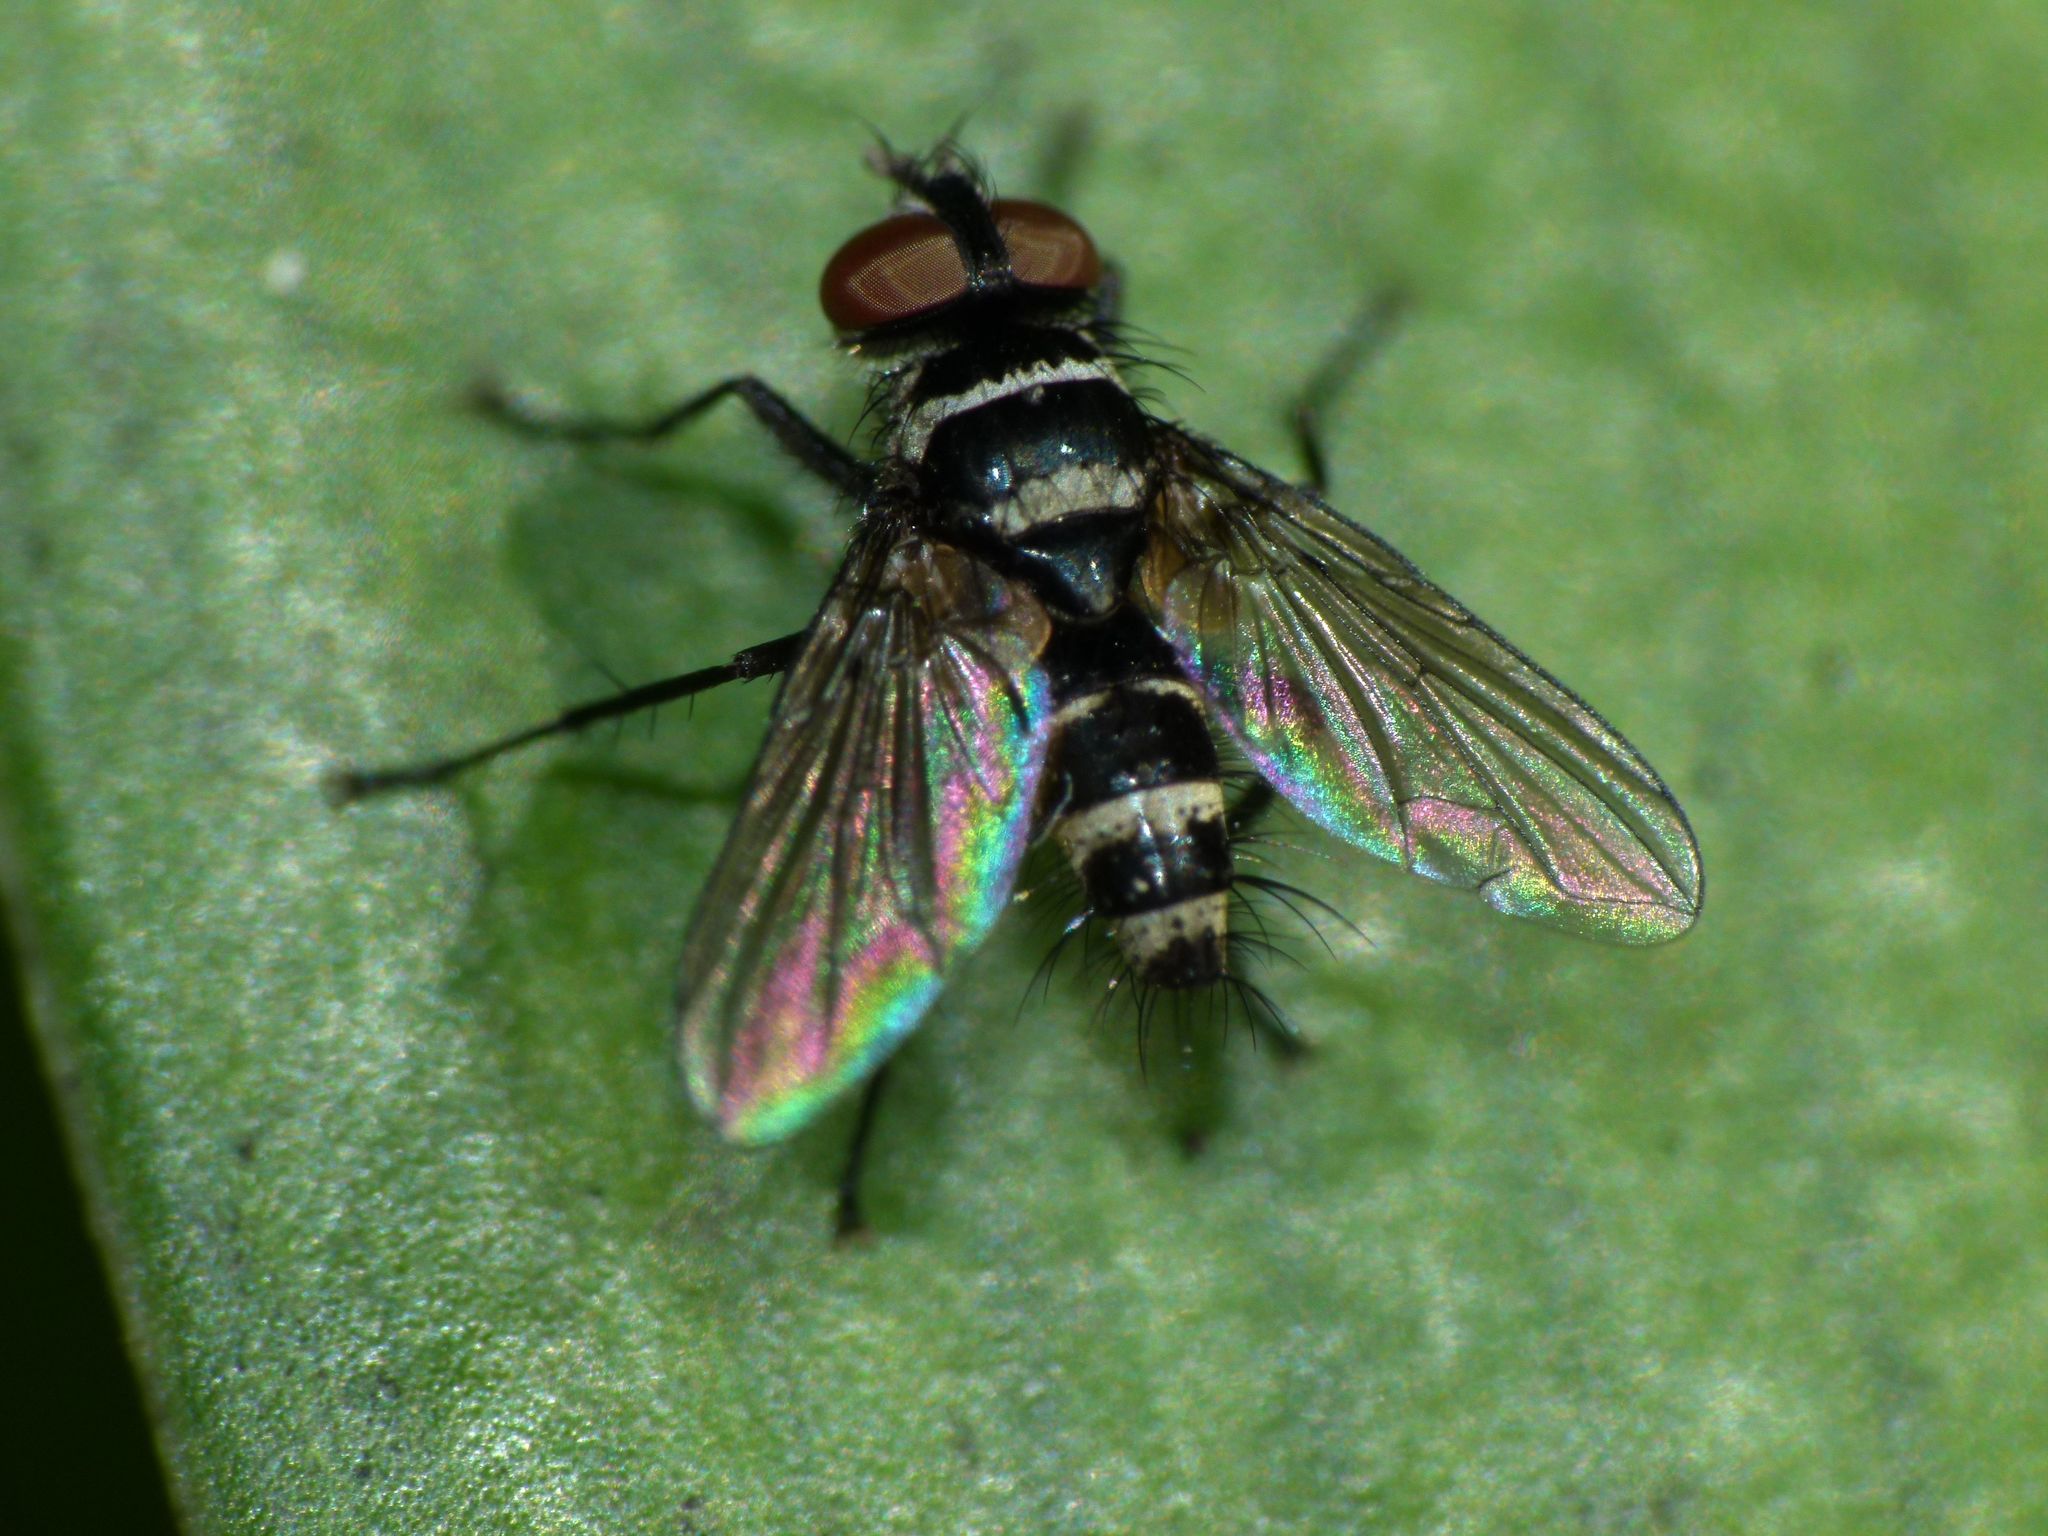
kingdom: Animalia
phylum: Arthropoda
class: Insecta
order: Diptera
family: Tachinidae
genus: Trigonospila
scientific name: Trigonospila brevifacies
